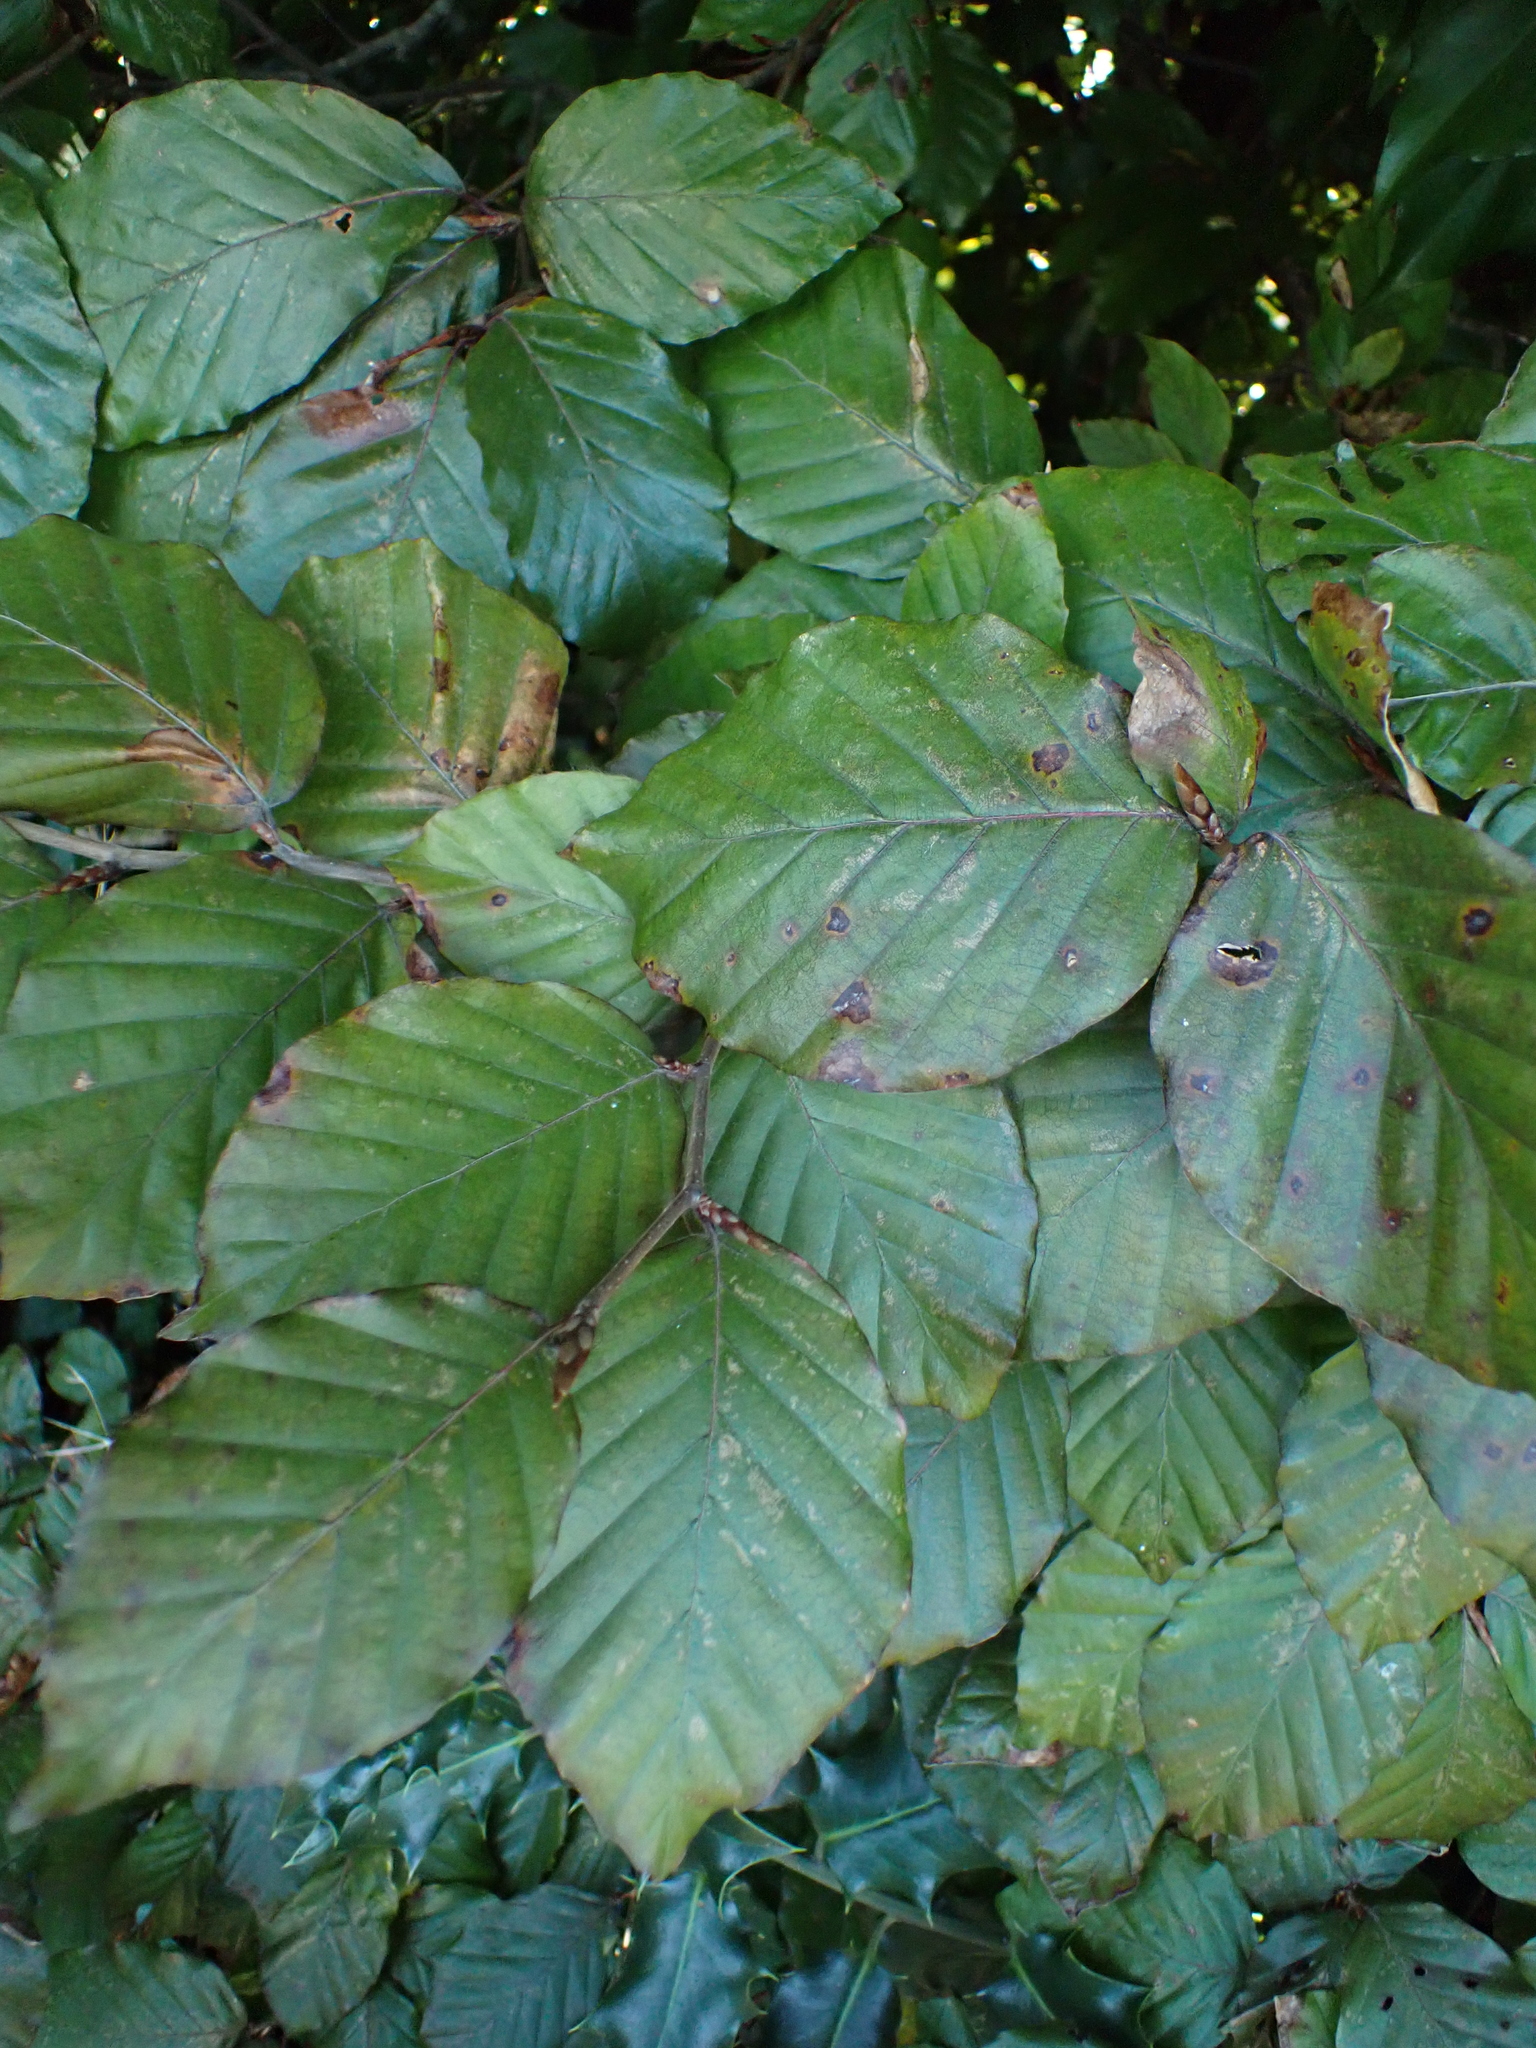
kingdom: Plantae
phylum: Tracheophyta
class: Magnoliopsida
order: Fagales
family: Fagaceae
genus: Fagus
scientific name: Fagus sylvatica
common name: Beech
